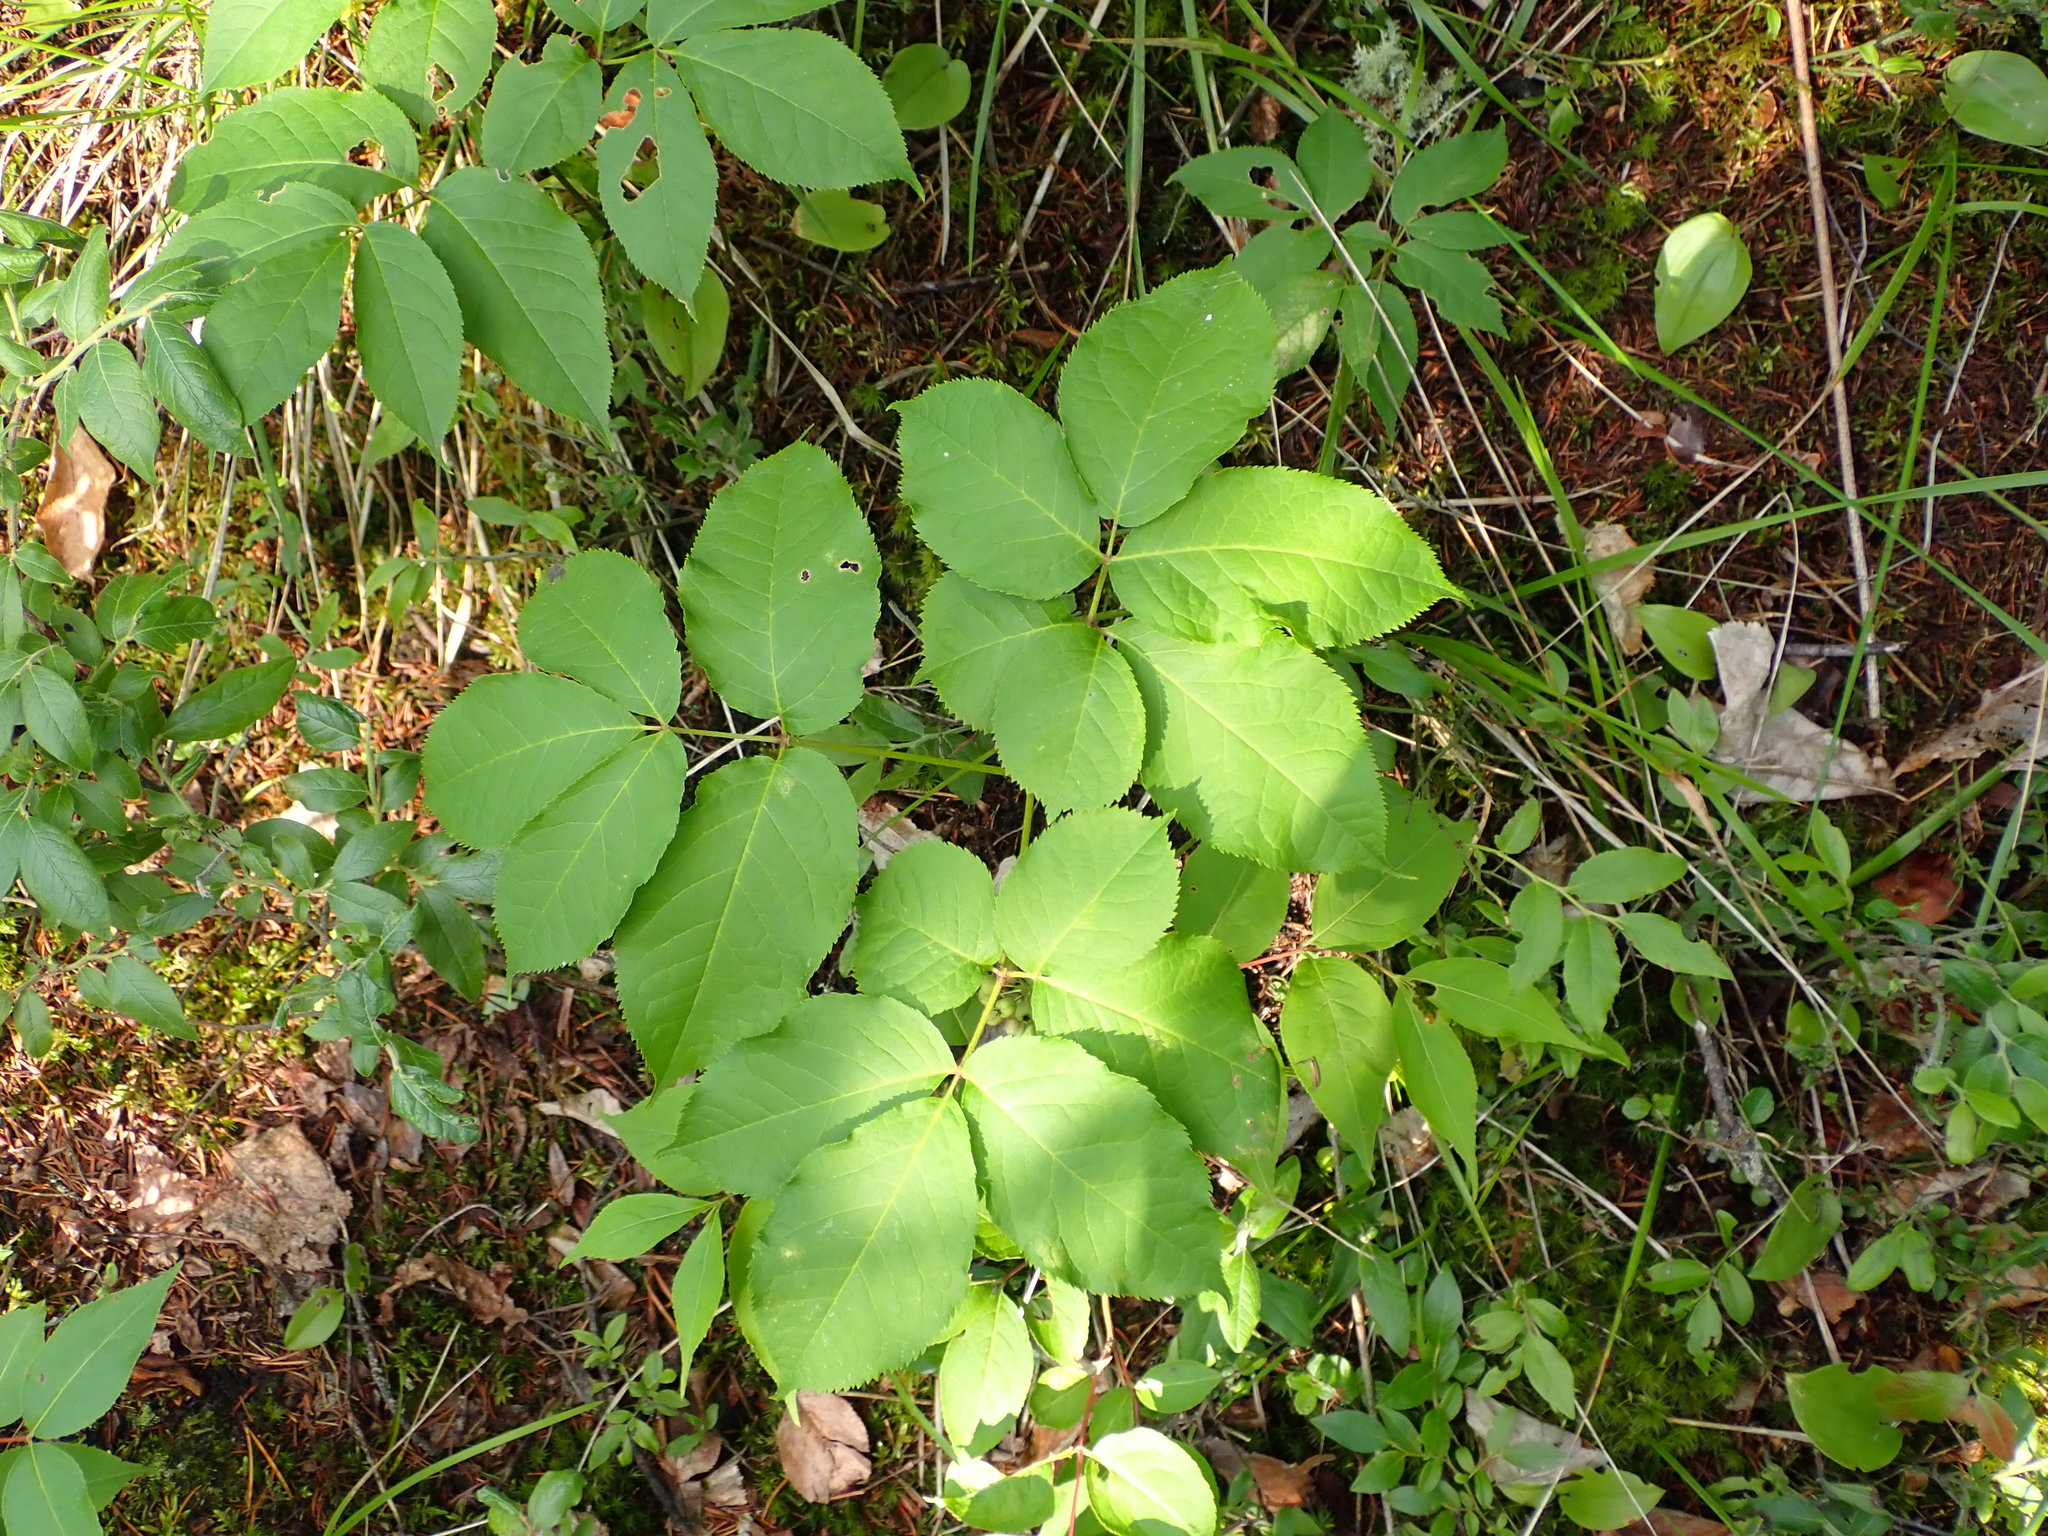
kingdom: Plantae
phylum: Tracheophyta
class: Magnoliopsida
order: Apiales
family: Araliaceae
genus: Aralia
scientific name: Aralia nudicaulis
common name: Wild sarsaparilla
